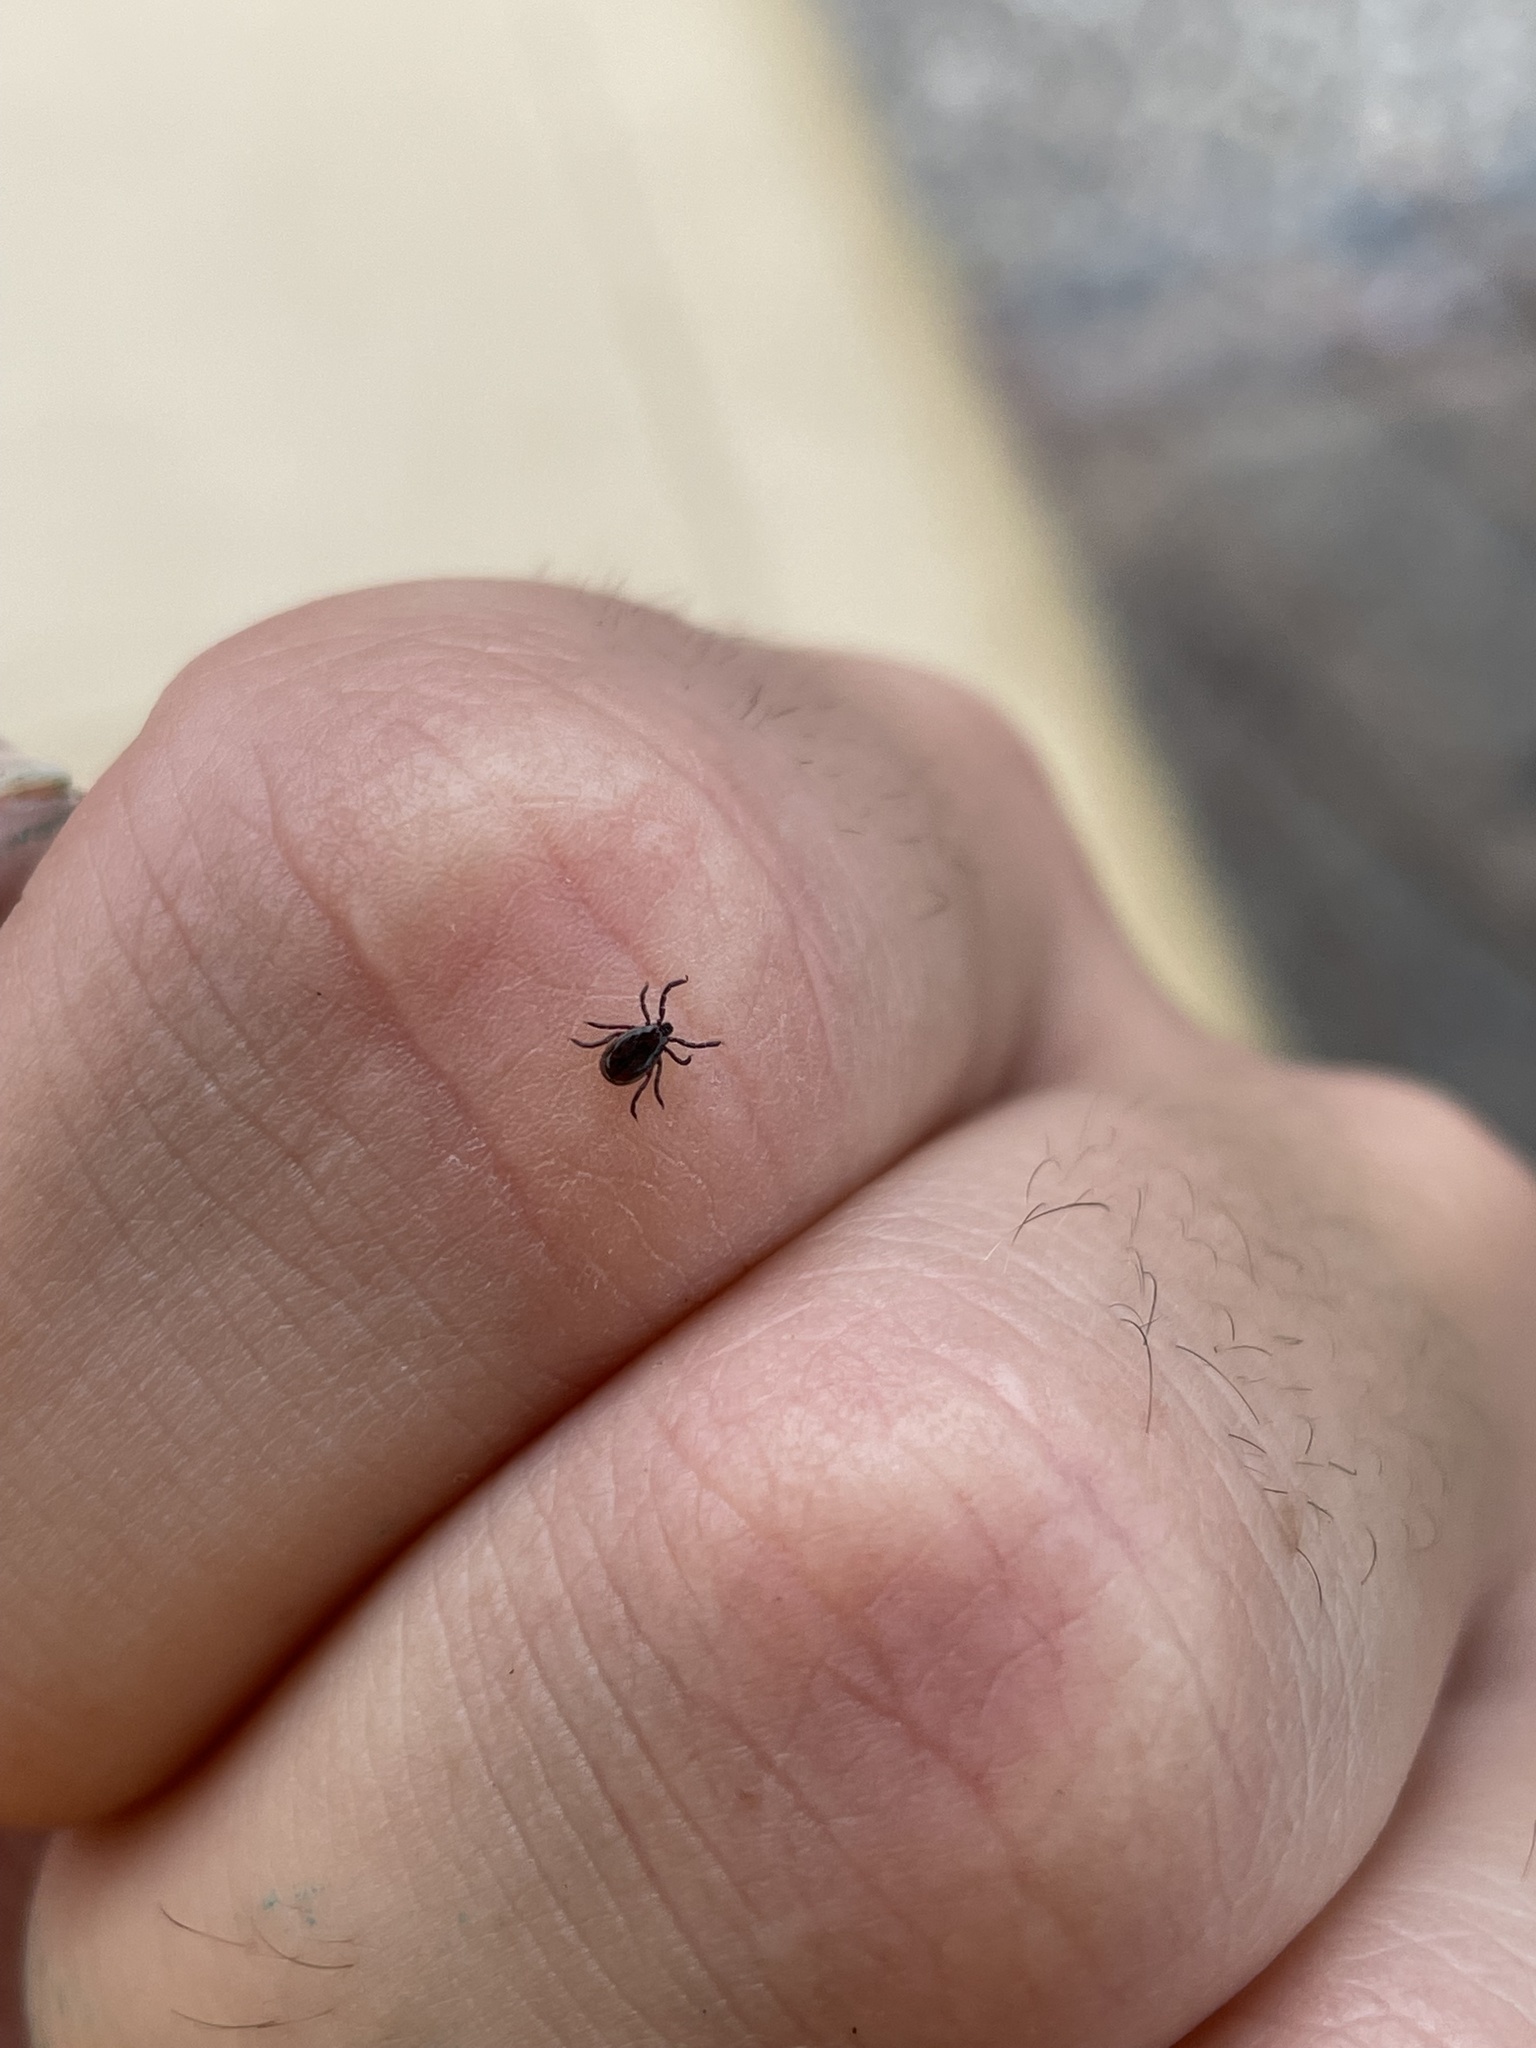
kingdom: Animalia
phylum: Arthropoda
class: Arachnida
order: Ixodida
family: Ixodidae
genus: Ixodes
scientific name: Ixodes scapularis
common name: Black legged tick
